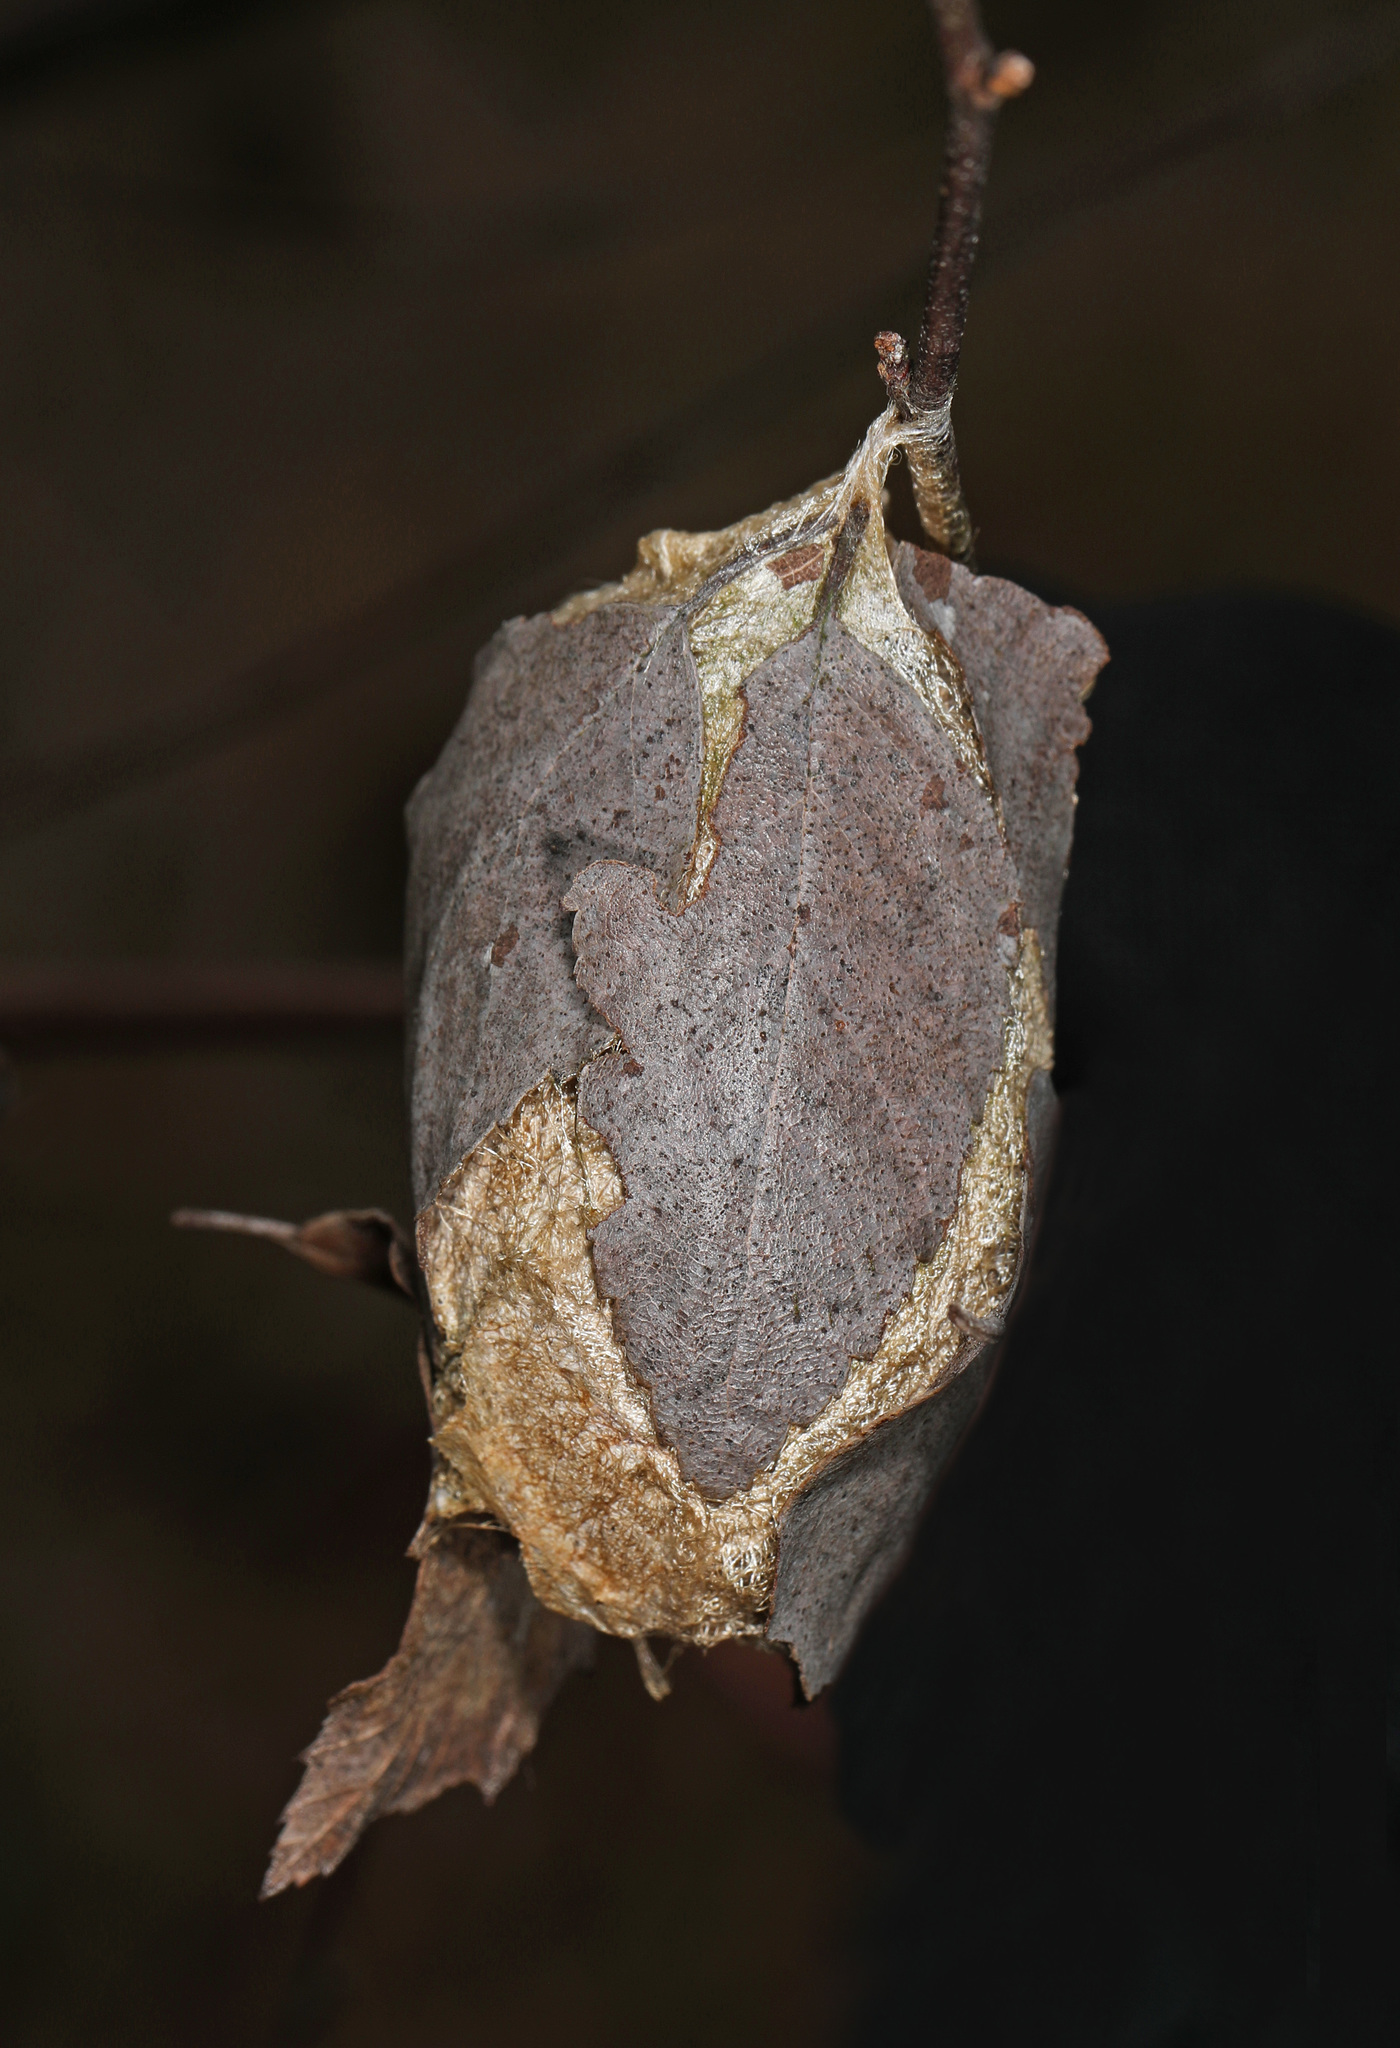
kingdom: Animalia
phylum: Arthropoda
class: Insecta
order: Lepidoptera
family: Saturniidae
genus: Antheraea
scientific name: Antheraea polyphemus
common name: Polyphemus moth
